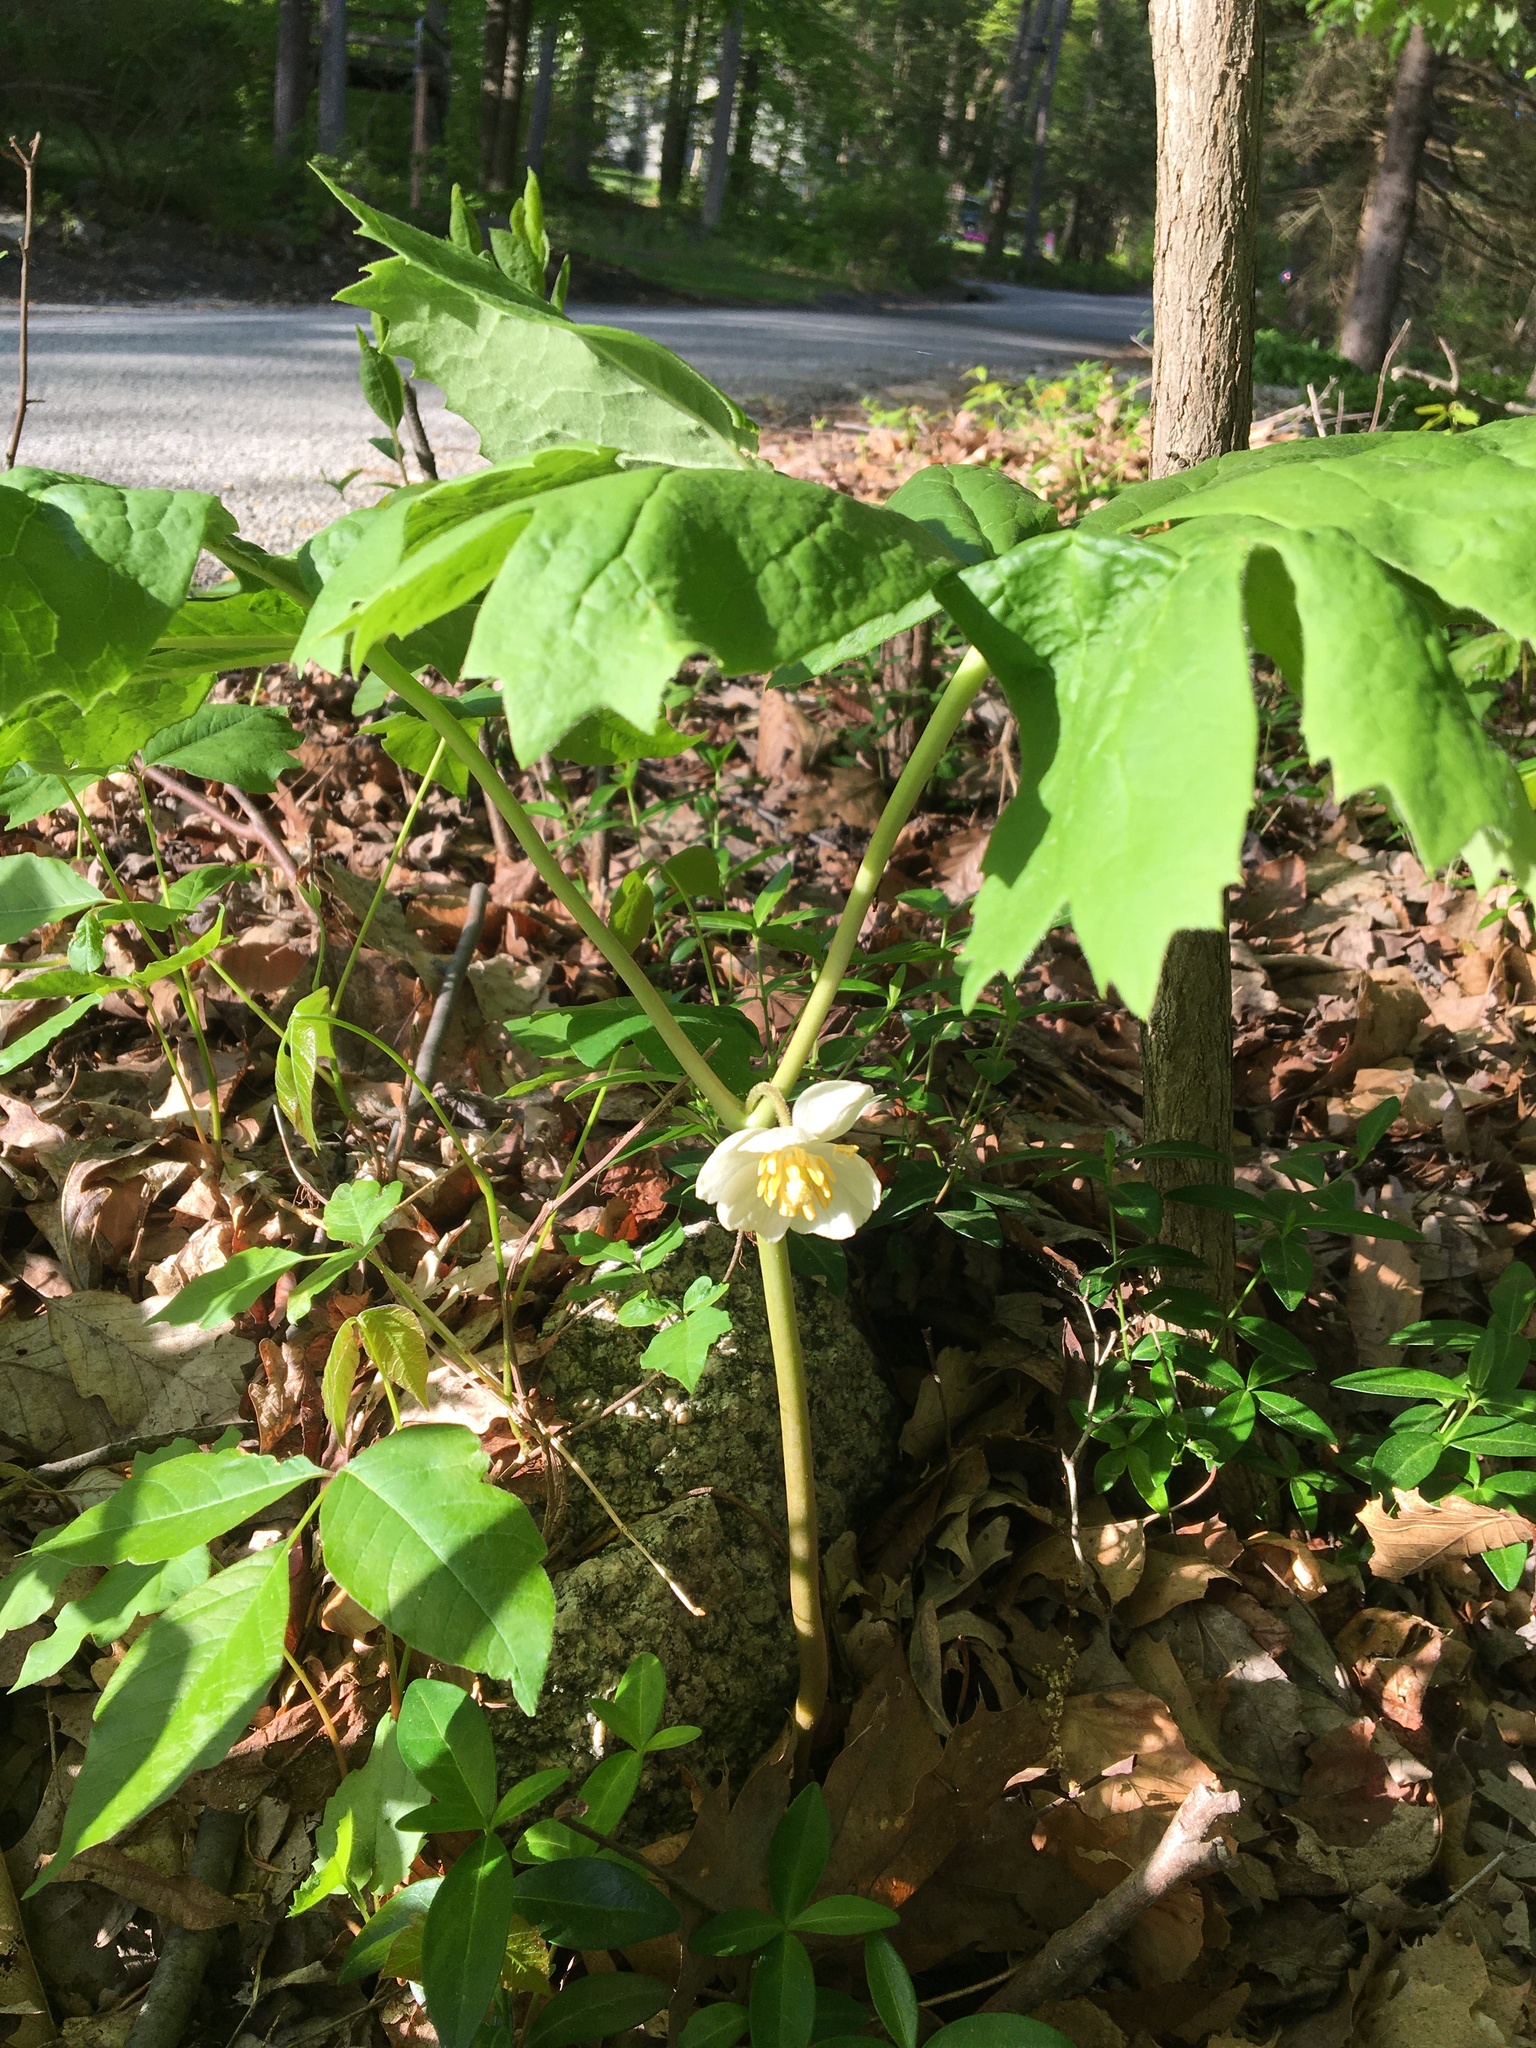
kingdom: Plantae
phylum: Tracheophyta
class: Magnoliopsida
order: Ranunculales
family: Berberidaceae
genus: Podophyllum
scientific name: Podophyllum peltatum
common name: Wild mandrake
